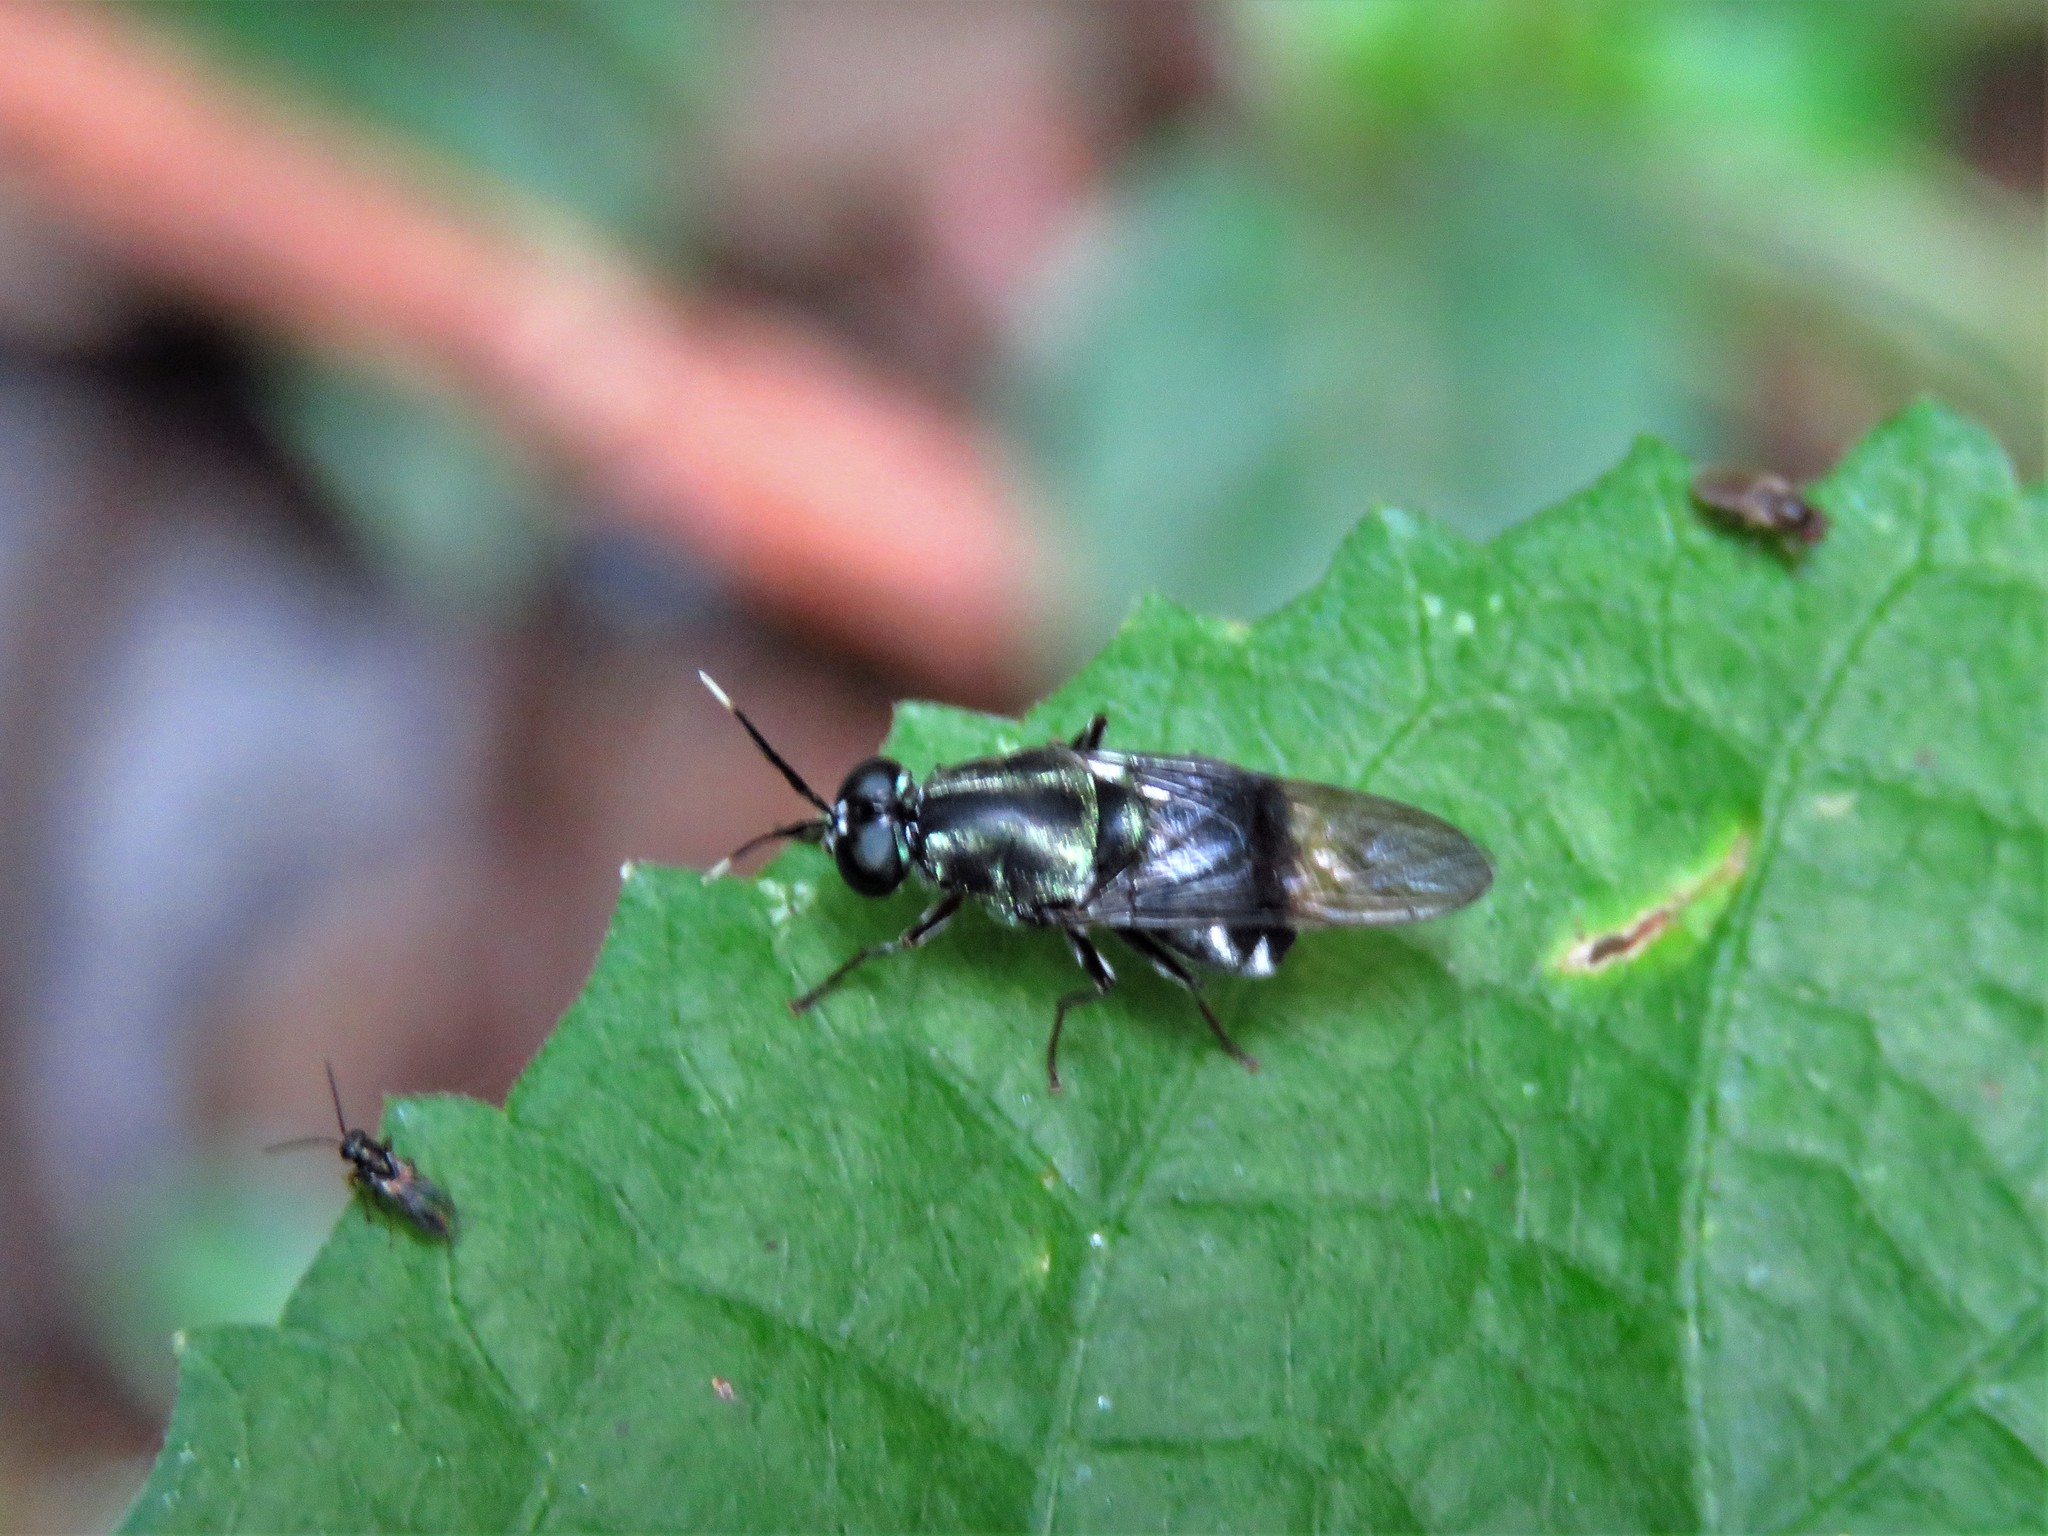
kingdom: Animalia
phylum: Arthropoda
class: Insecta
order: Diptera
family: Stratiomyidae
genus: Isomerocera
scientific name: Isomerocera quadrilineata
